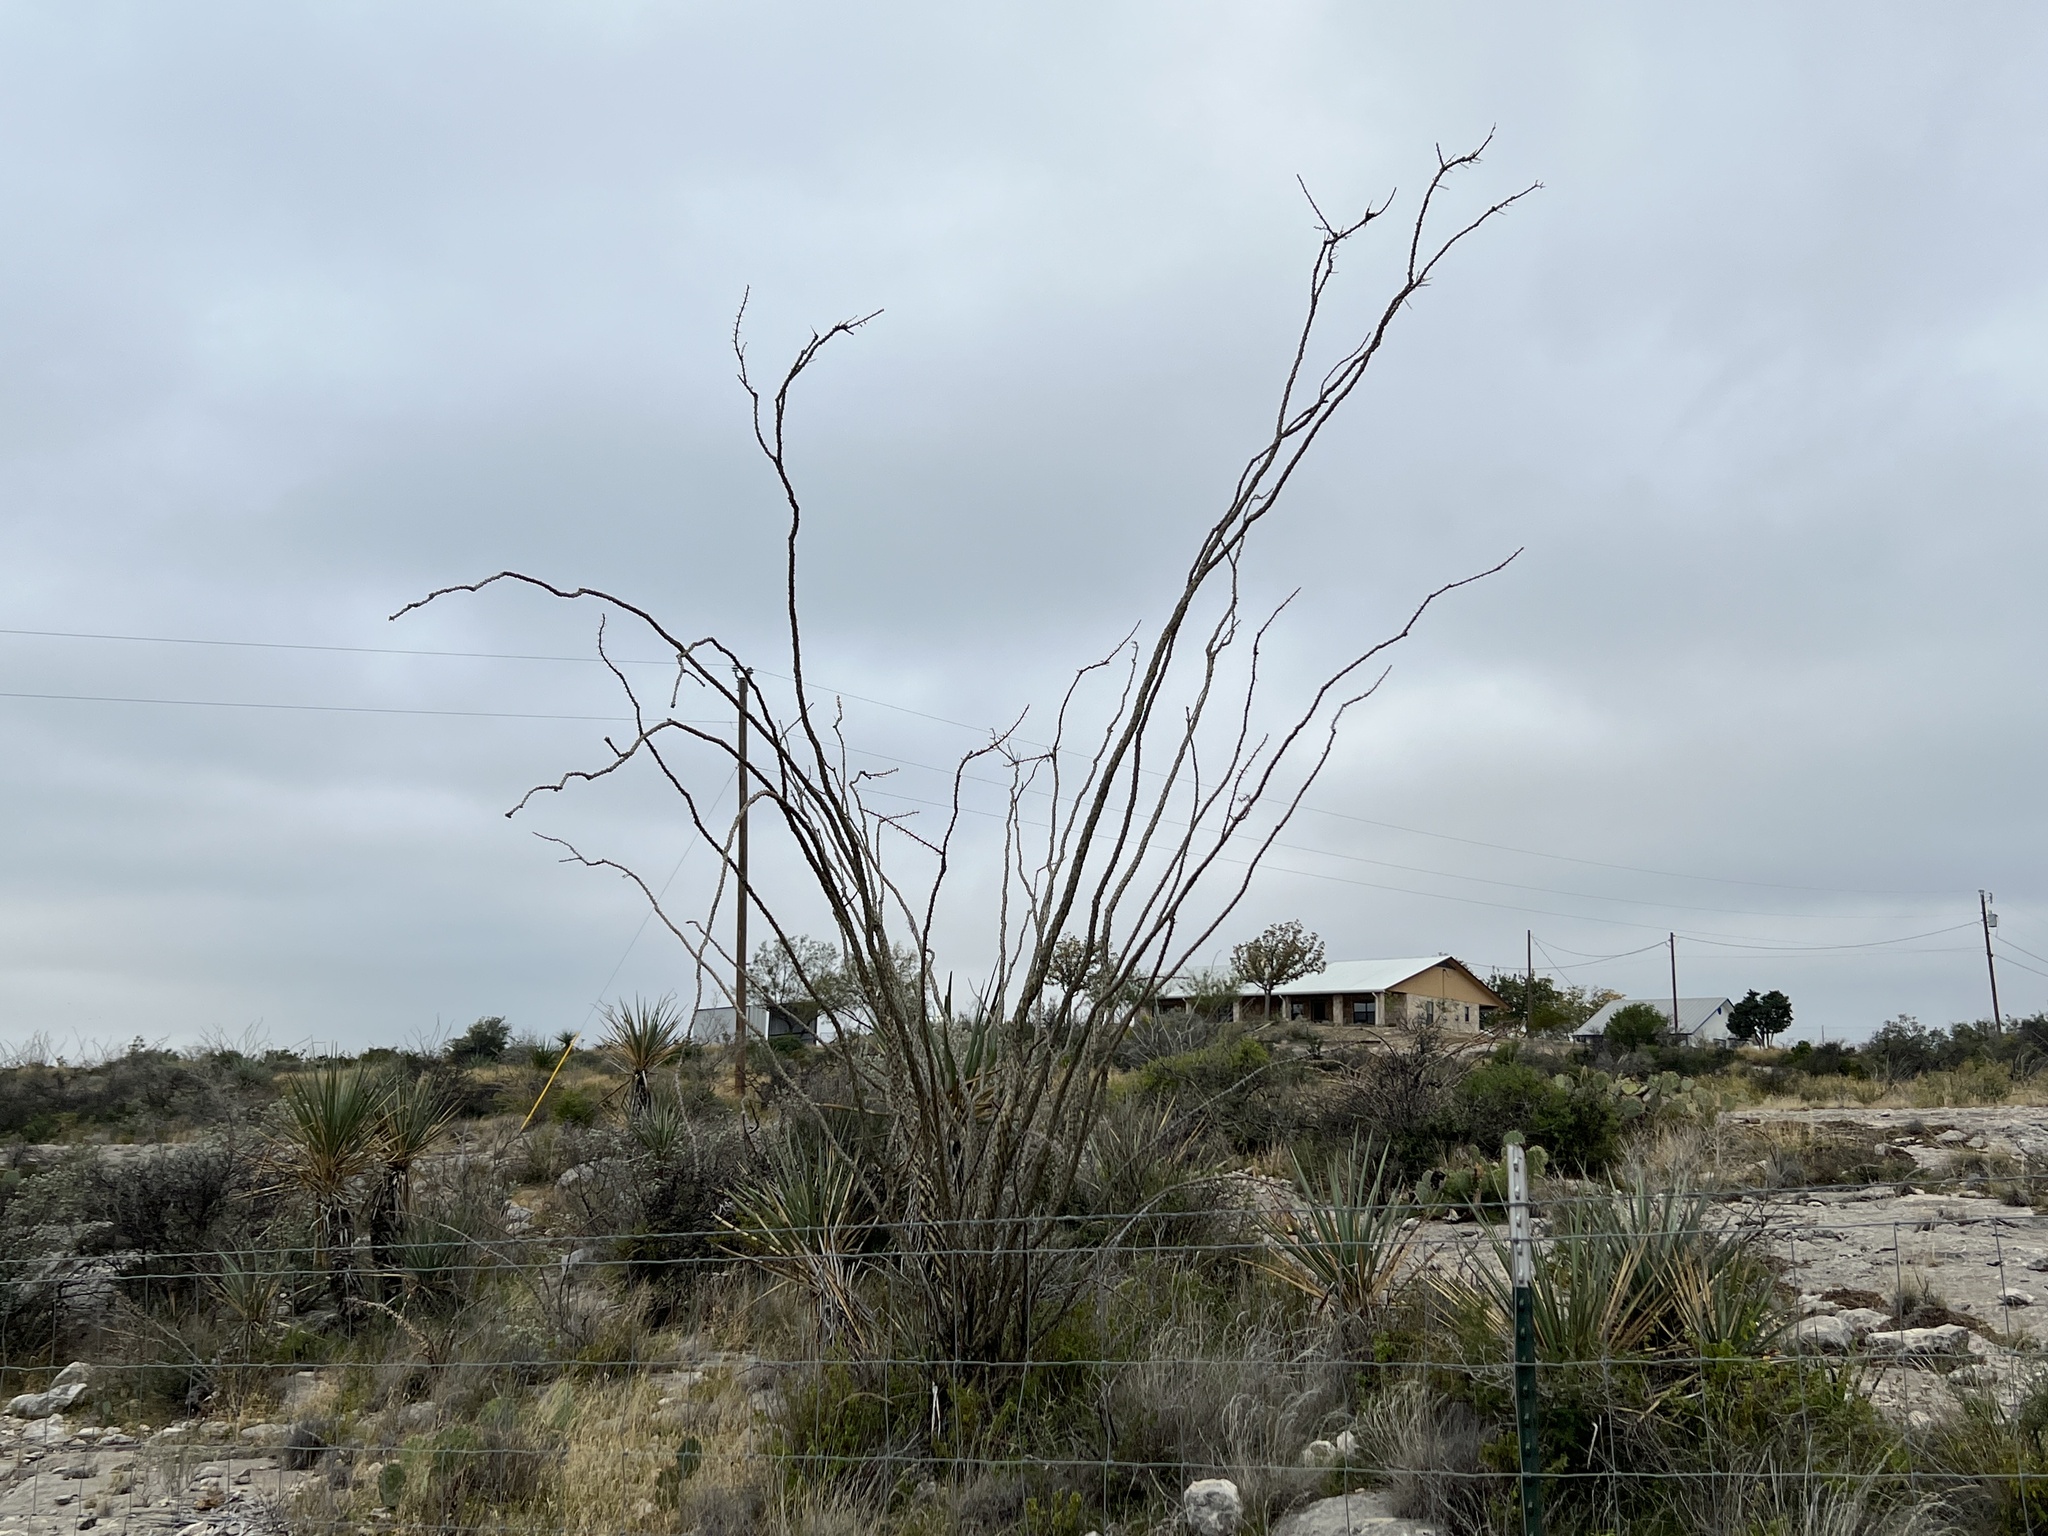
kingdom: Plantae
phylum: Tracheophyta
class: Magnoliopsida
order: Ericales
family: Fouquieriaceae
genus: Fouquieria
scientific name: Fouquieria splendens
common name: Vine-cactus
